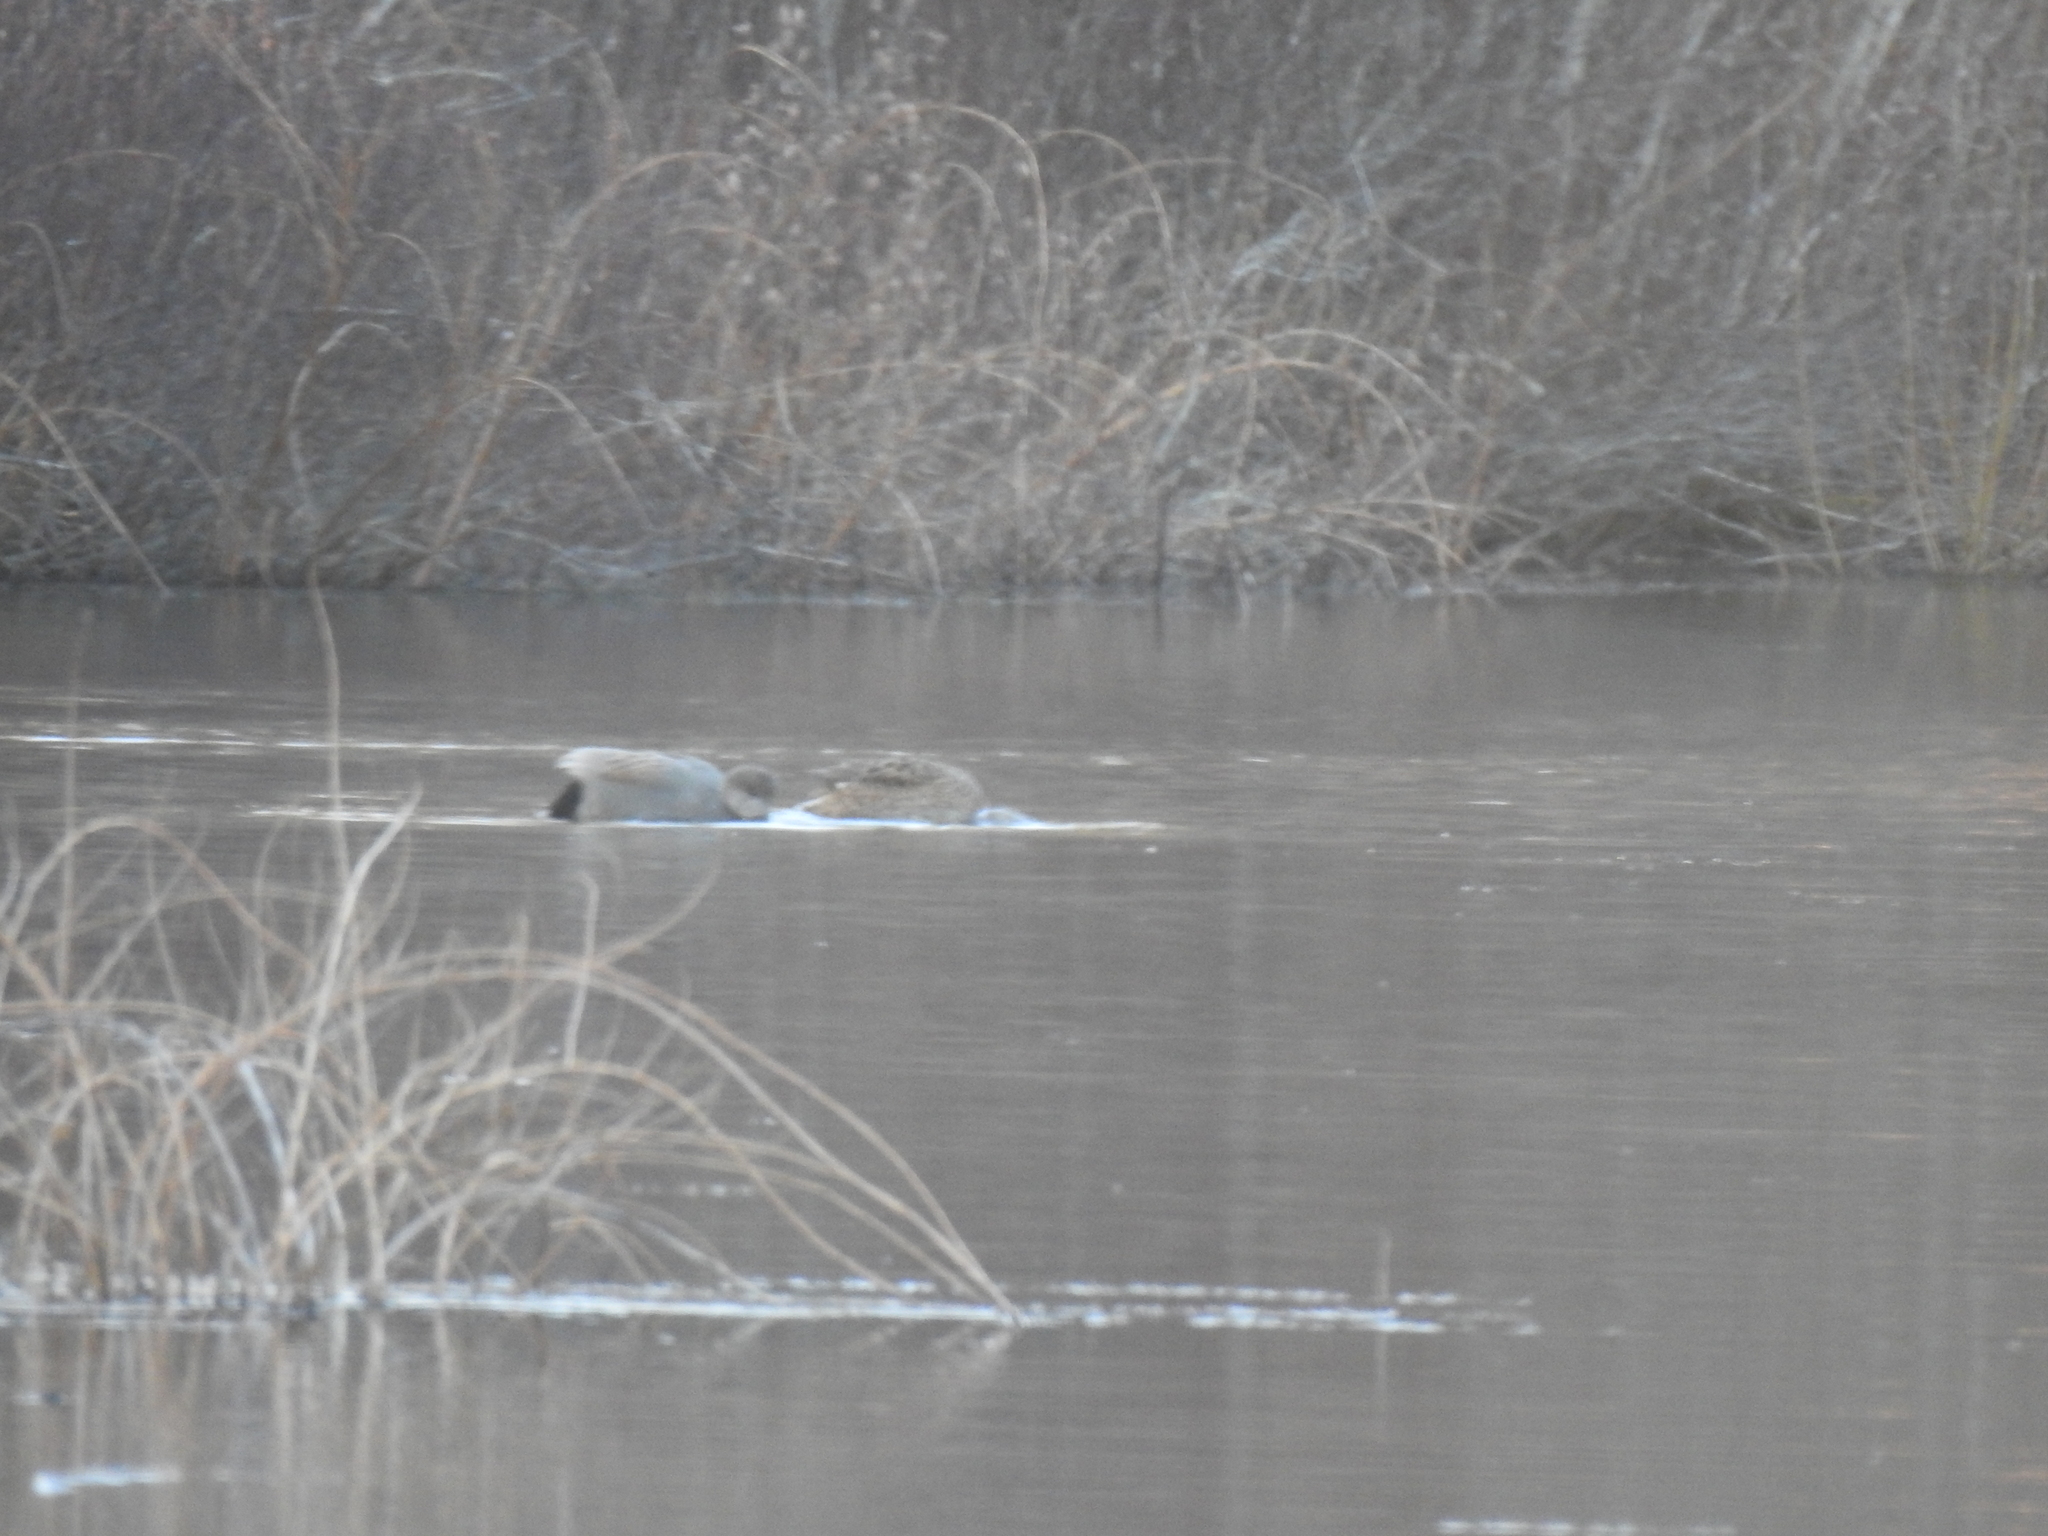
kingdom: Animalia
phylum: Chordata
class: Aves
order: Anseriformes
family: Anatidae
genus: Mareca
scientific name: Mareca strepera
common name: Gadwall
